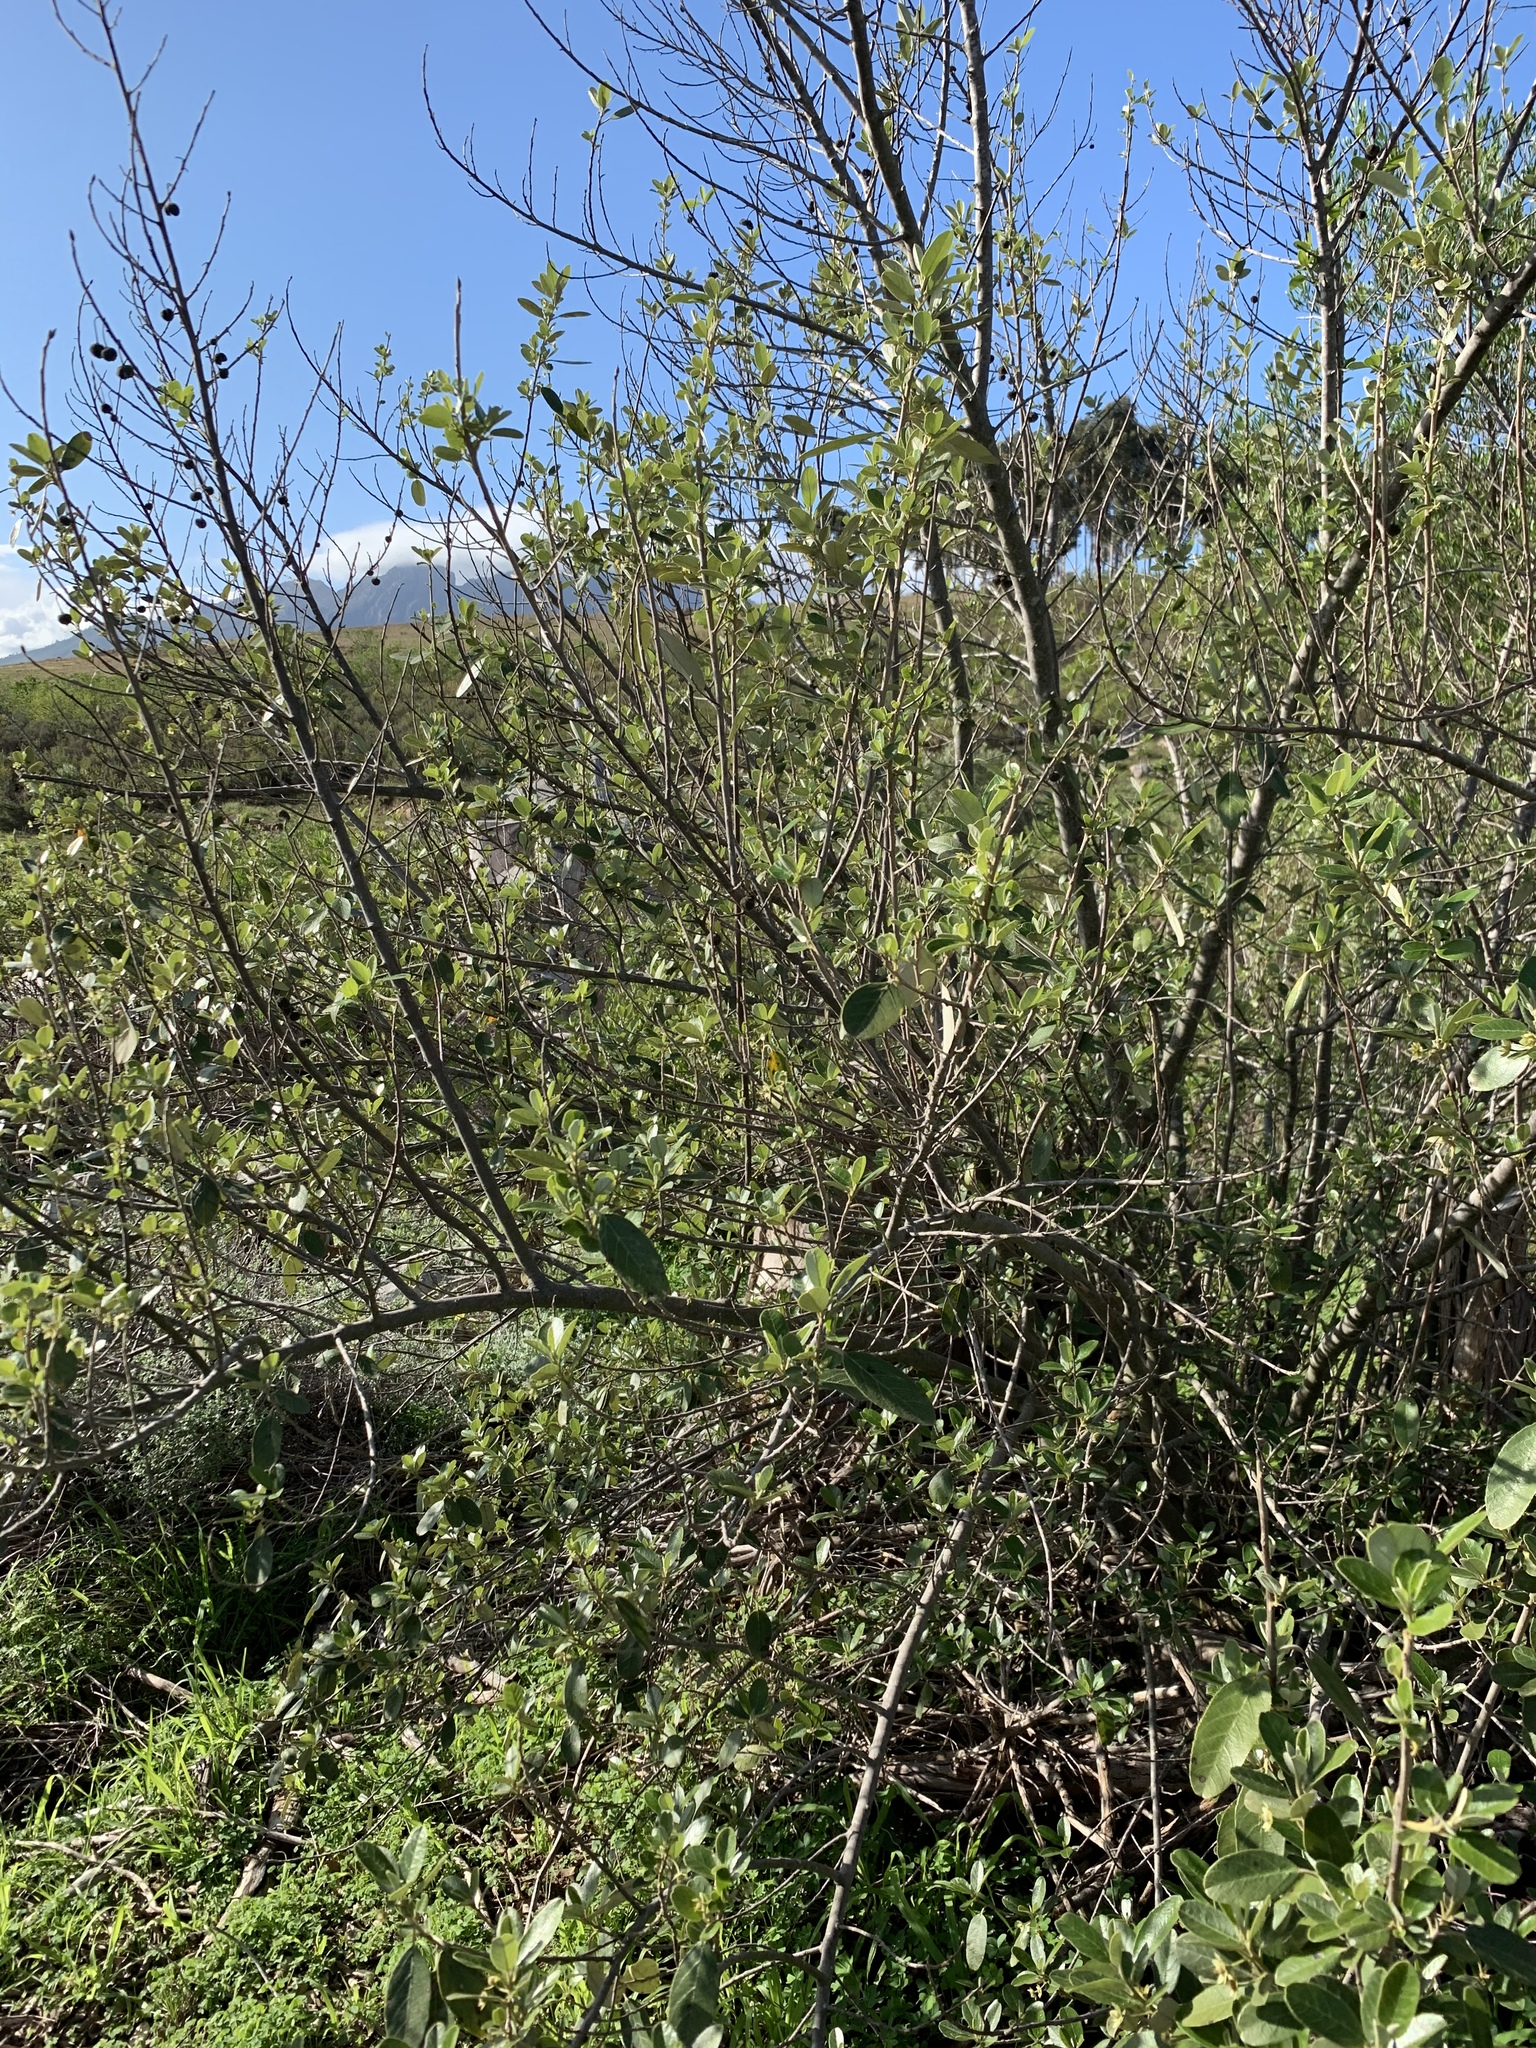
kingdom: Plantae
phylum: Tracheophyta
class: Magnoliopsida
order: Malpighiales
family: Achariaceae
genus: Kiggelaria
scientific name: Kiggelaria africana
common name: Wild peach
